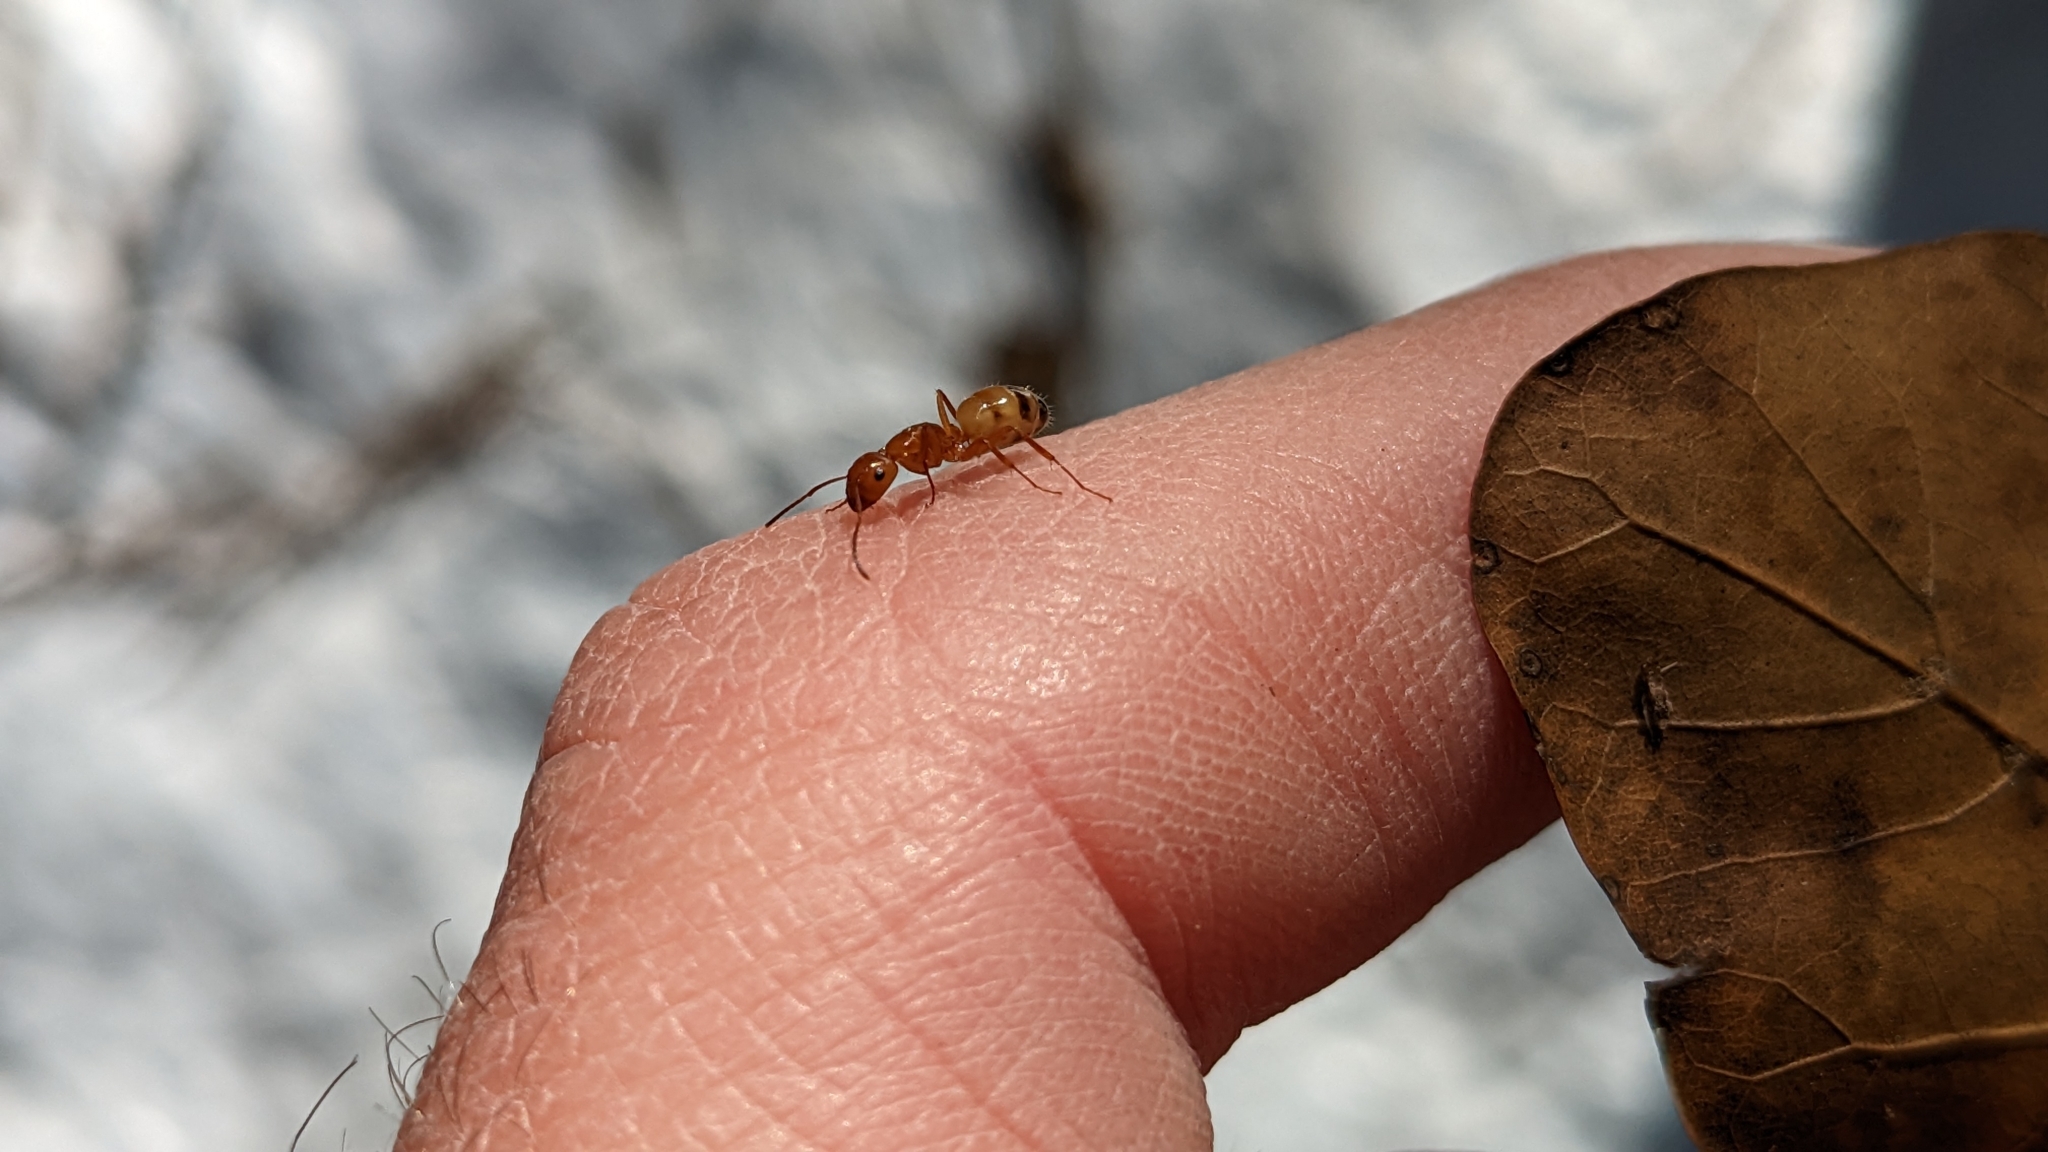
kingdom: Animalia
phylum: Arthropoda
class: Insecta
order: Hymenoptera
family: Formicidae
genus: Camponotus
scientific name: Camponotus snellingi
